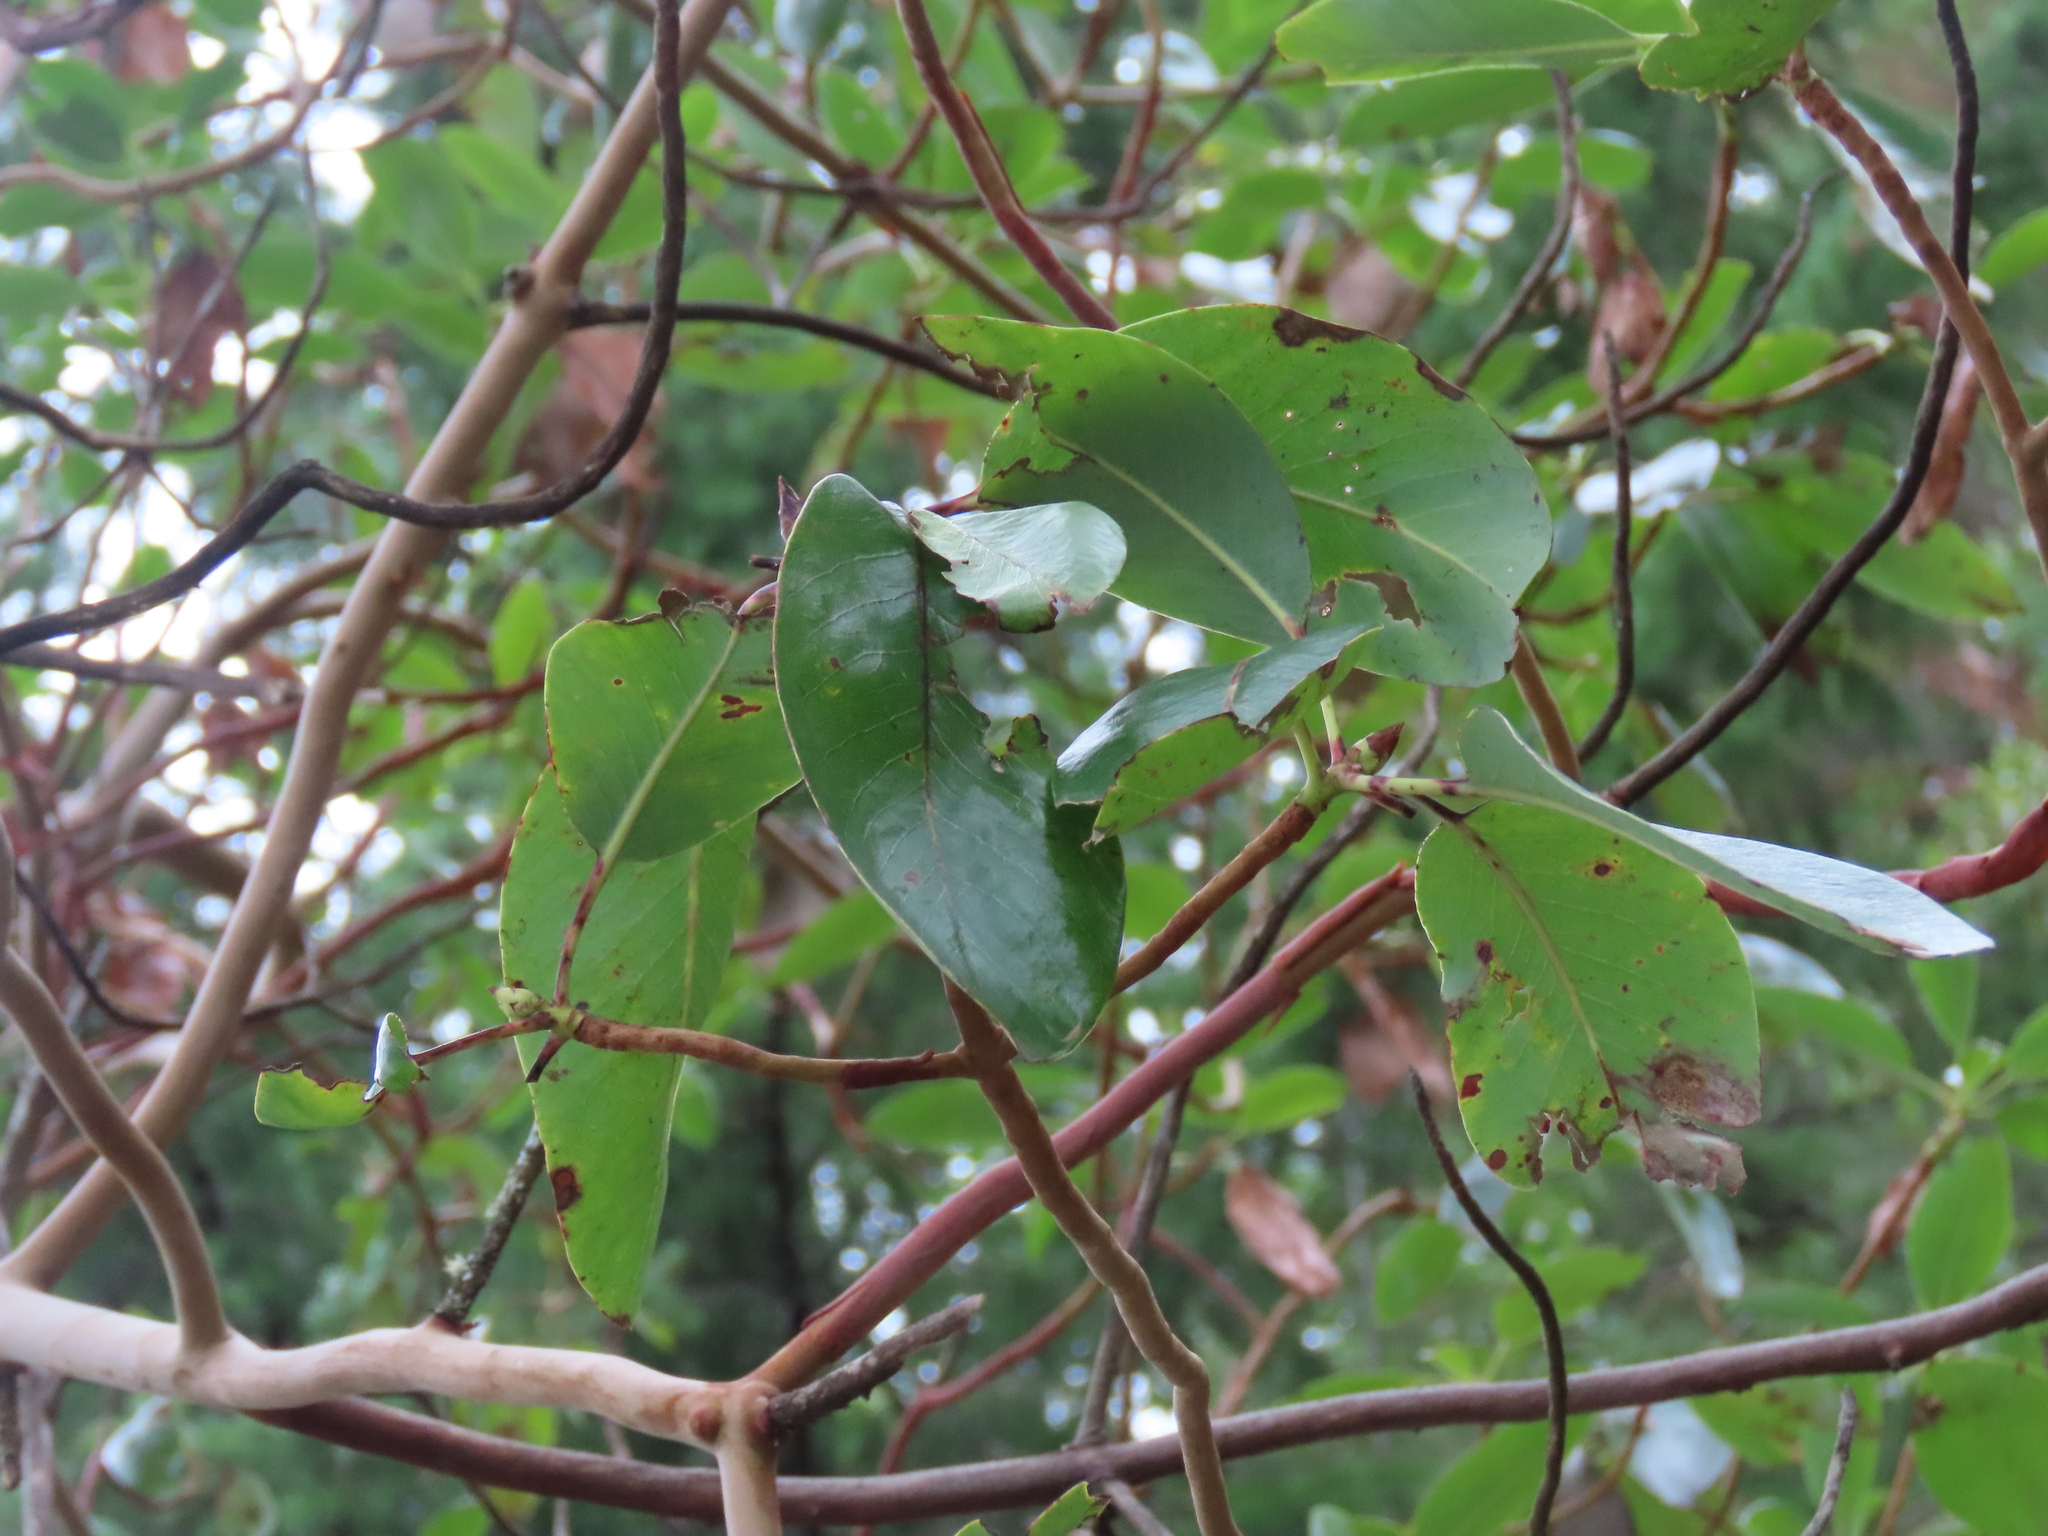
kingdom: Plantae
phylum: Tracheophyta
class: Magnoliopsida
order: Ericales
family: Ericaceae
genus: Arbutus
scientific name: Arbutus menziesii
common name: Pacific madrone
